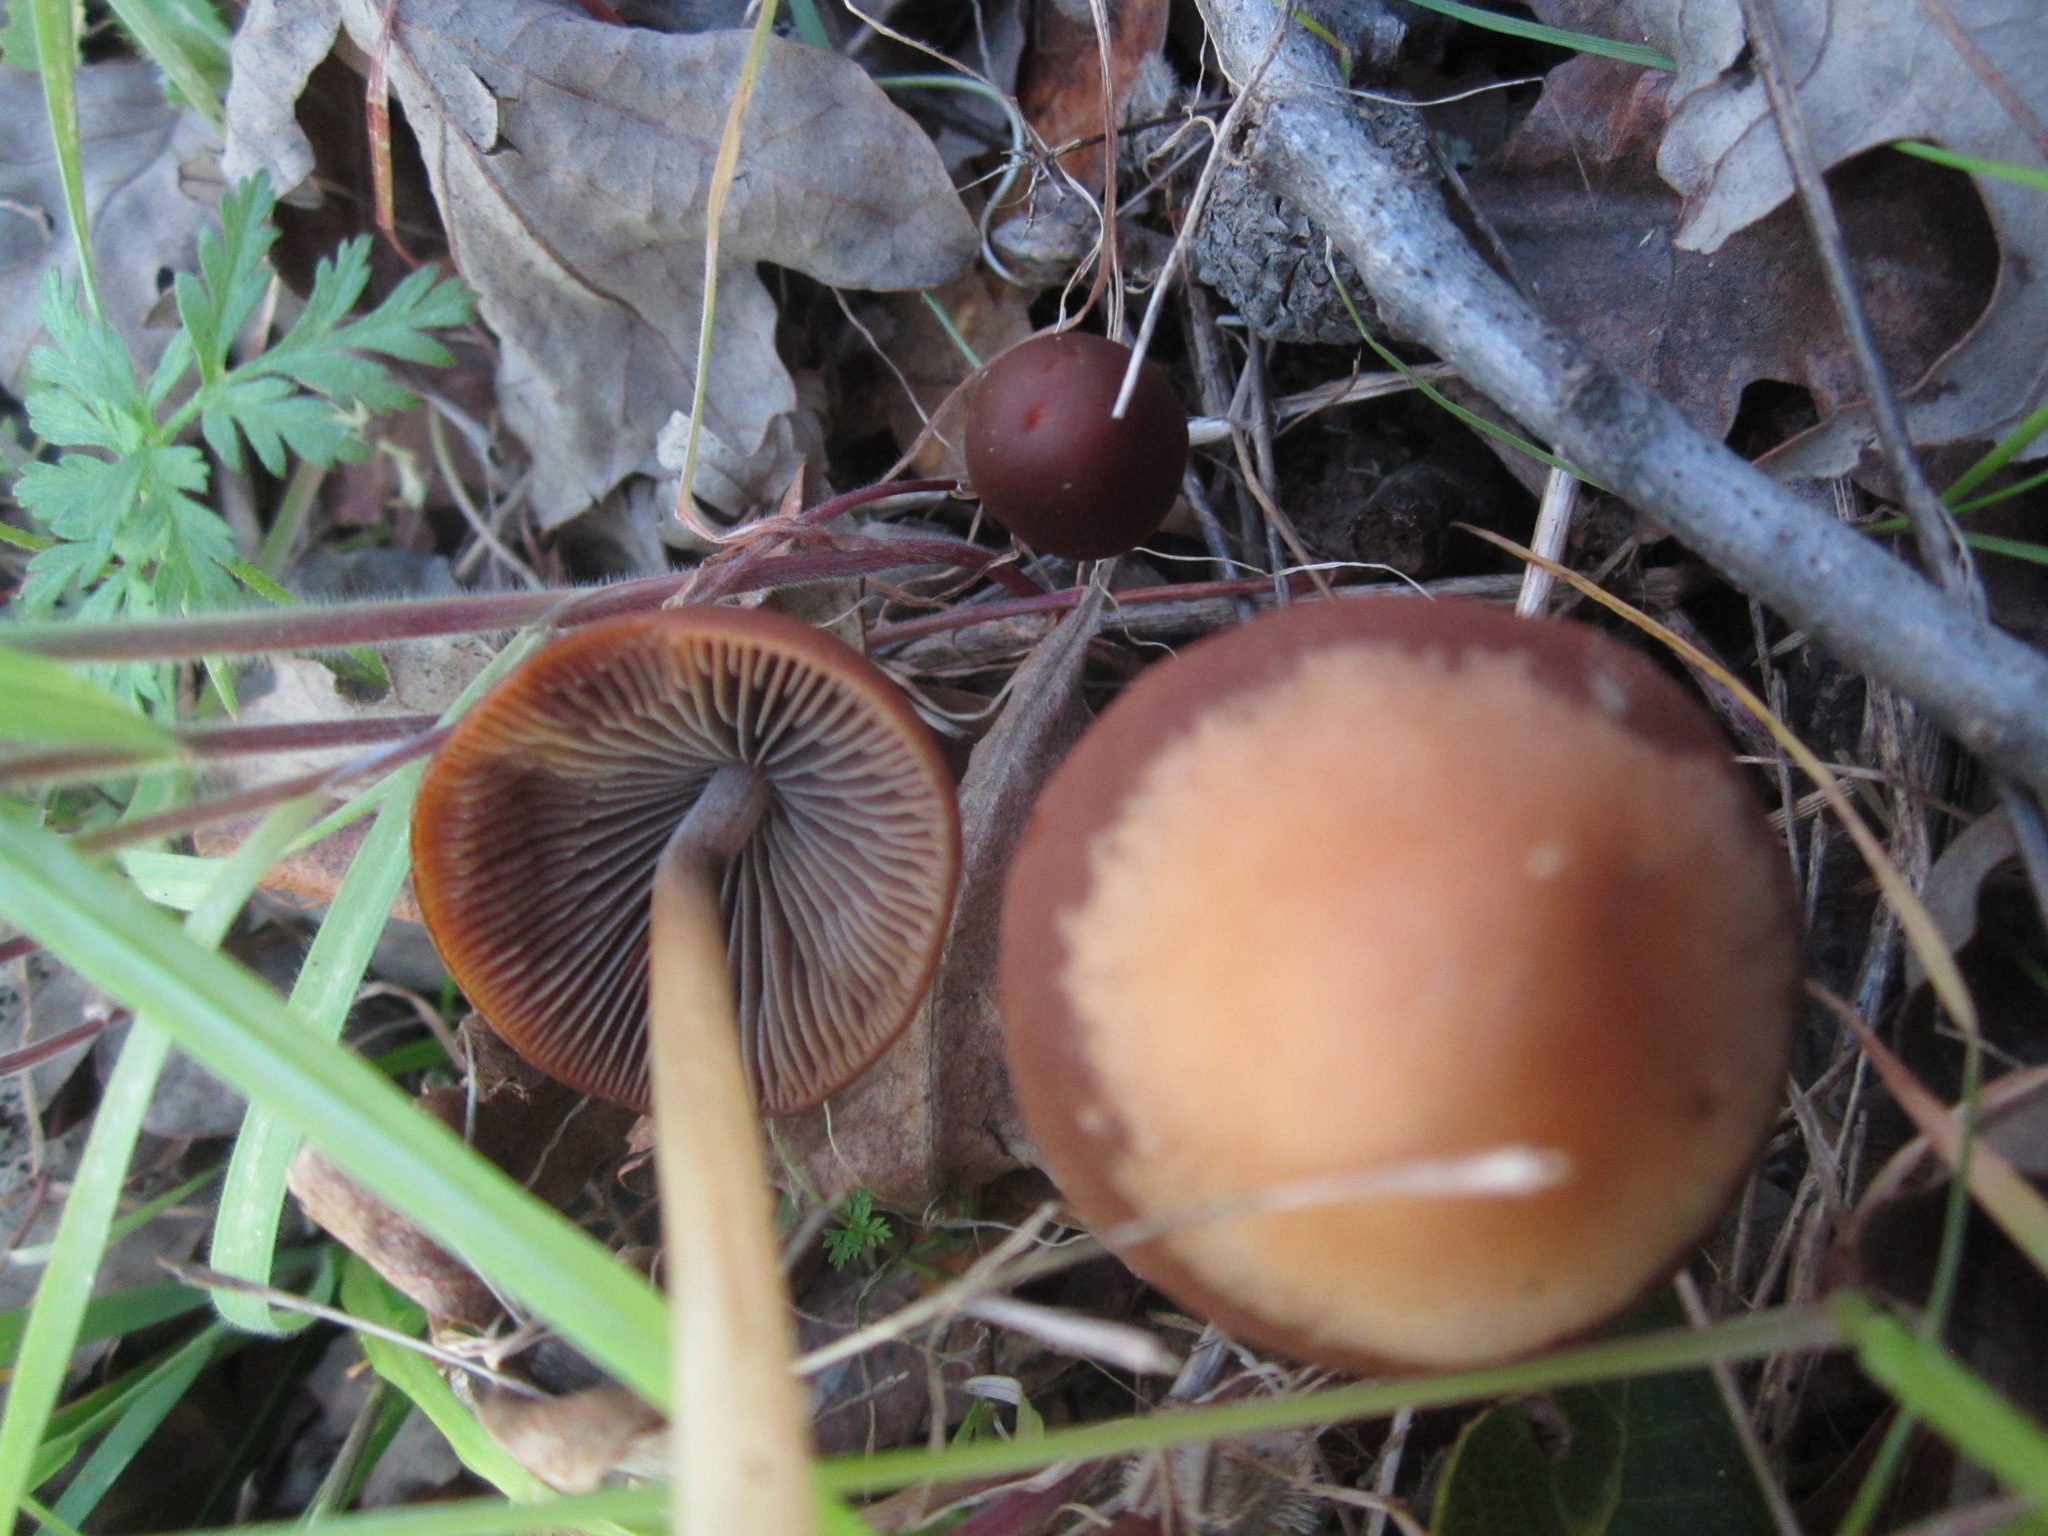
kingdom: Fungi
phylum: Basidiomycota
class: Agaricomycetes
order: Agaricales
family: Psathyrellaceae
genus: Psathyrella
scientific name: Psathyrella atrospora
